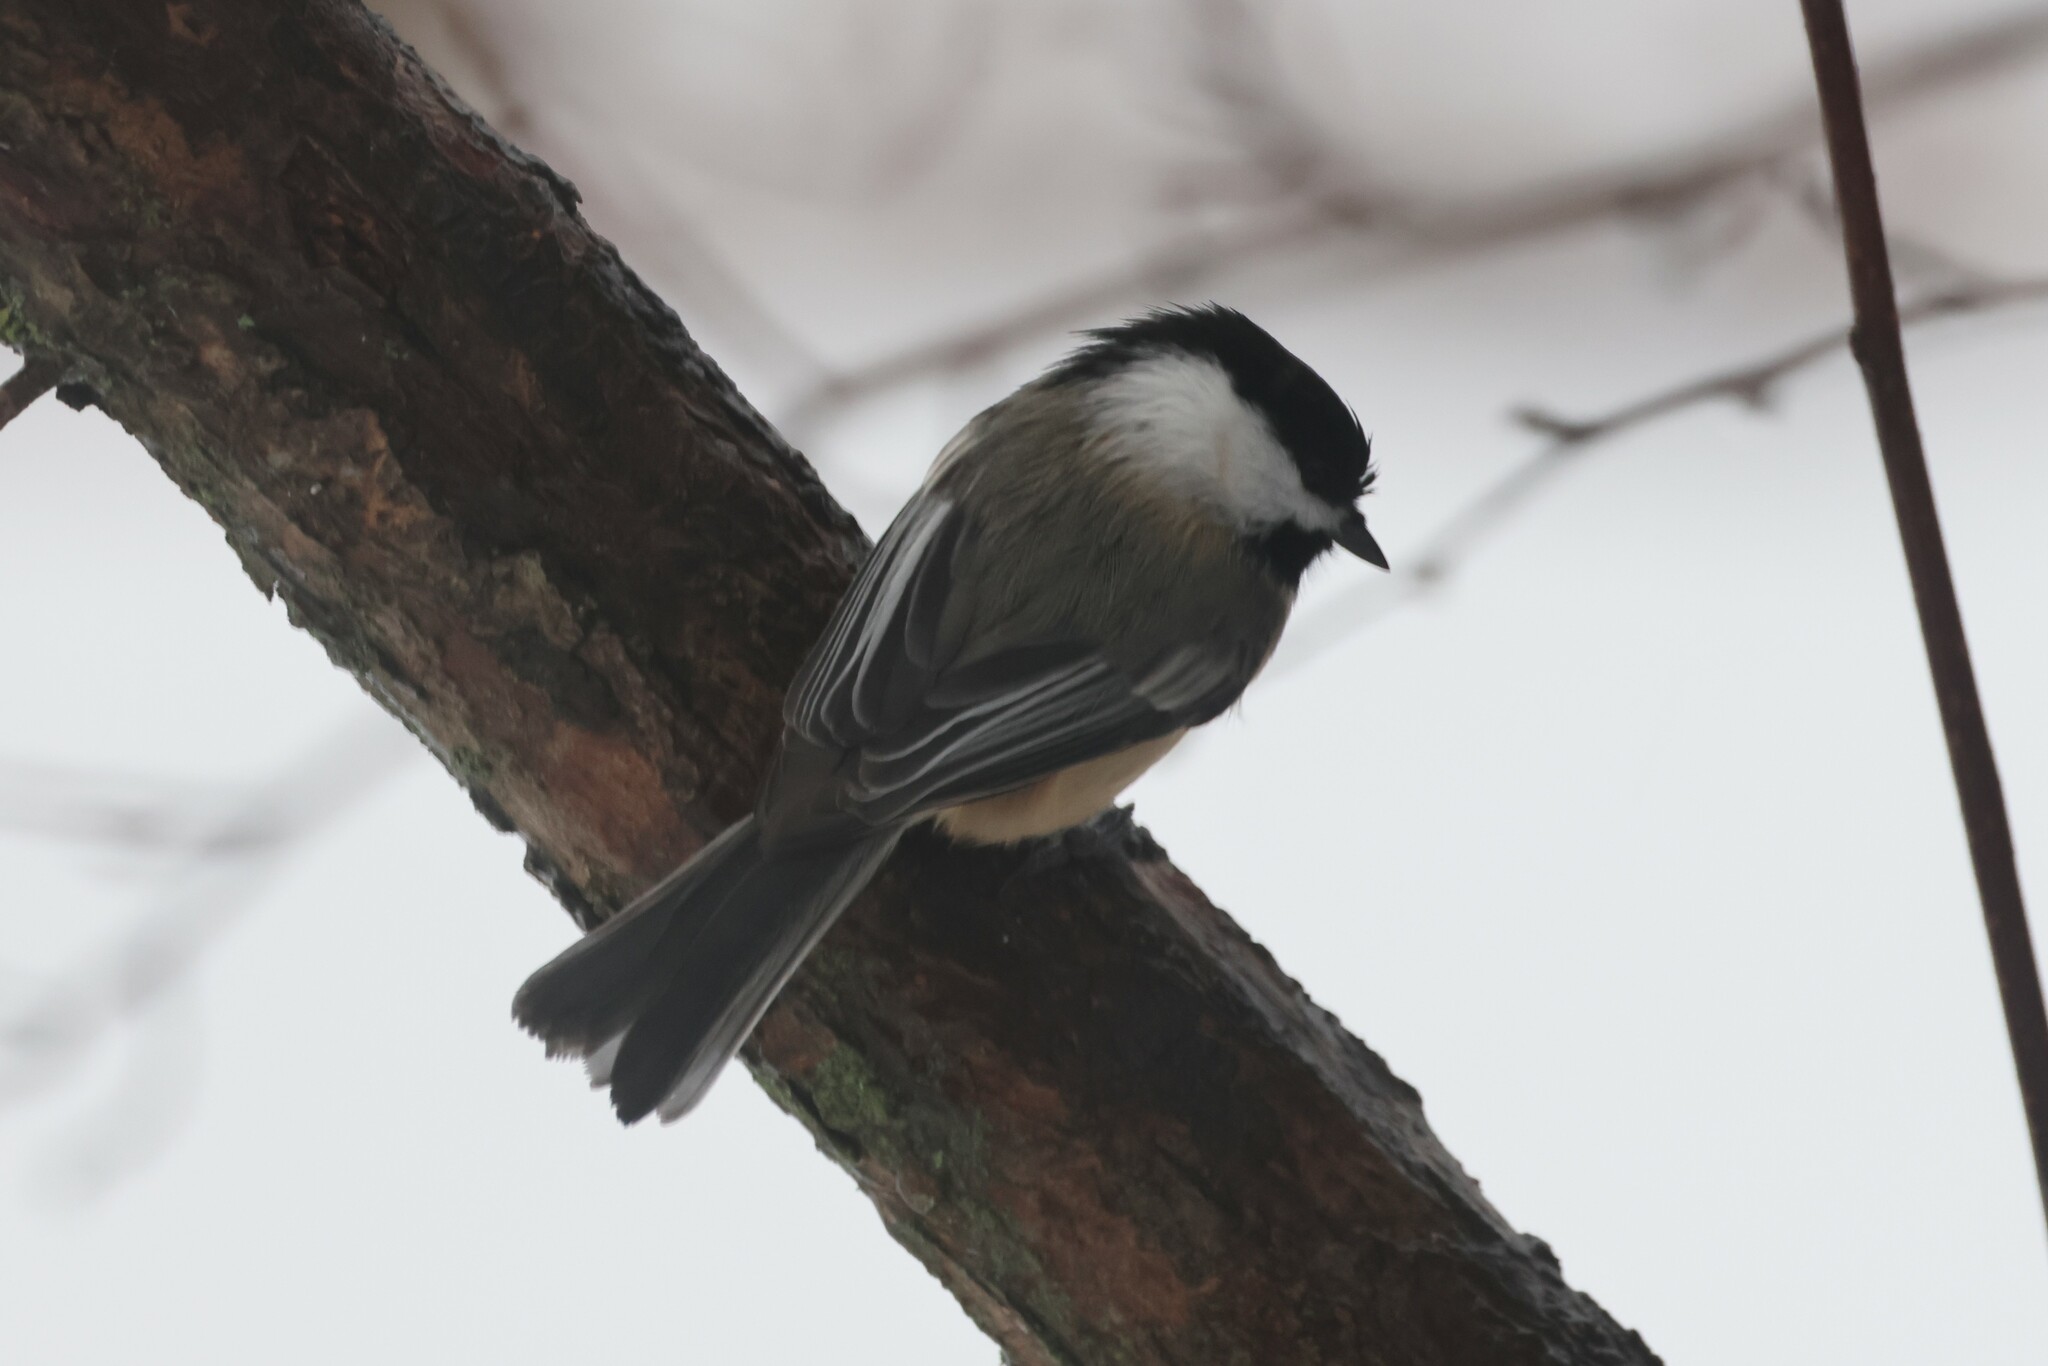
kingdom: Animalia
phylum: Chordata
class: Aves
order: Passeriformes
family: Paridae
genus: Poecile
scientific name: Poecile atricapillus
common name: Black-capped chickadee
